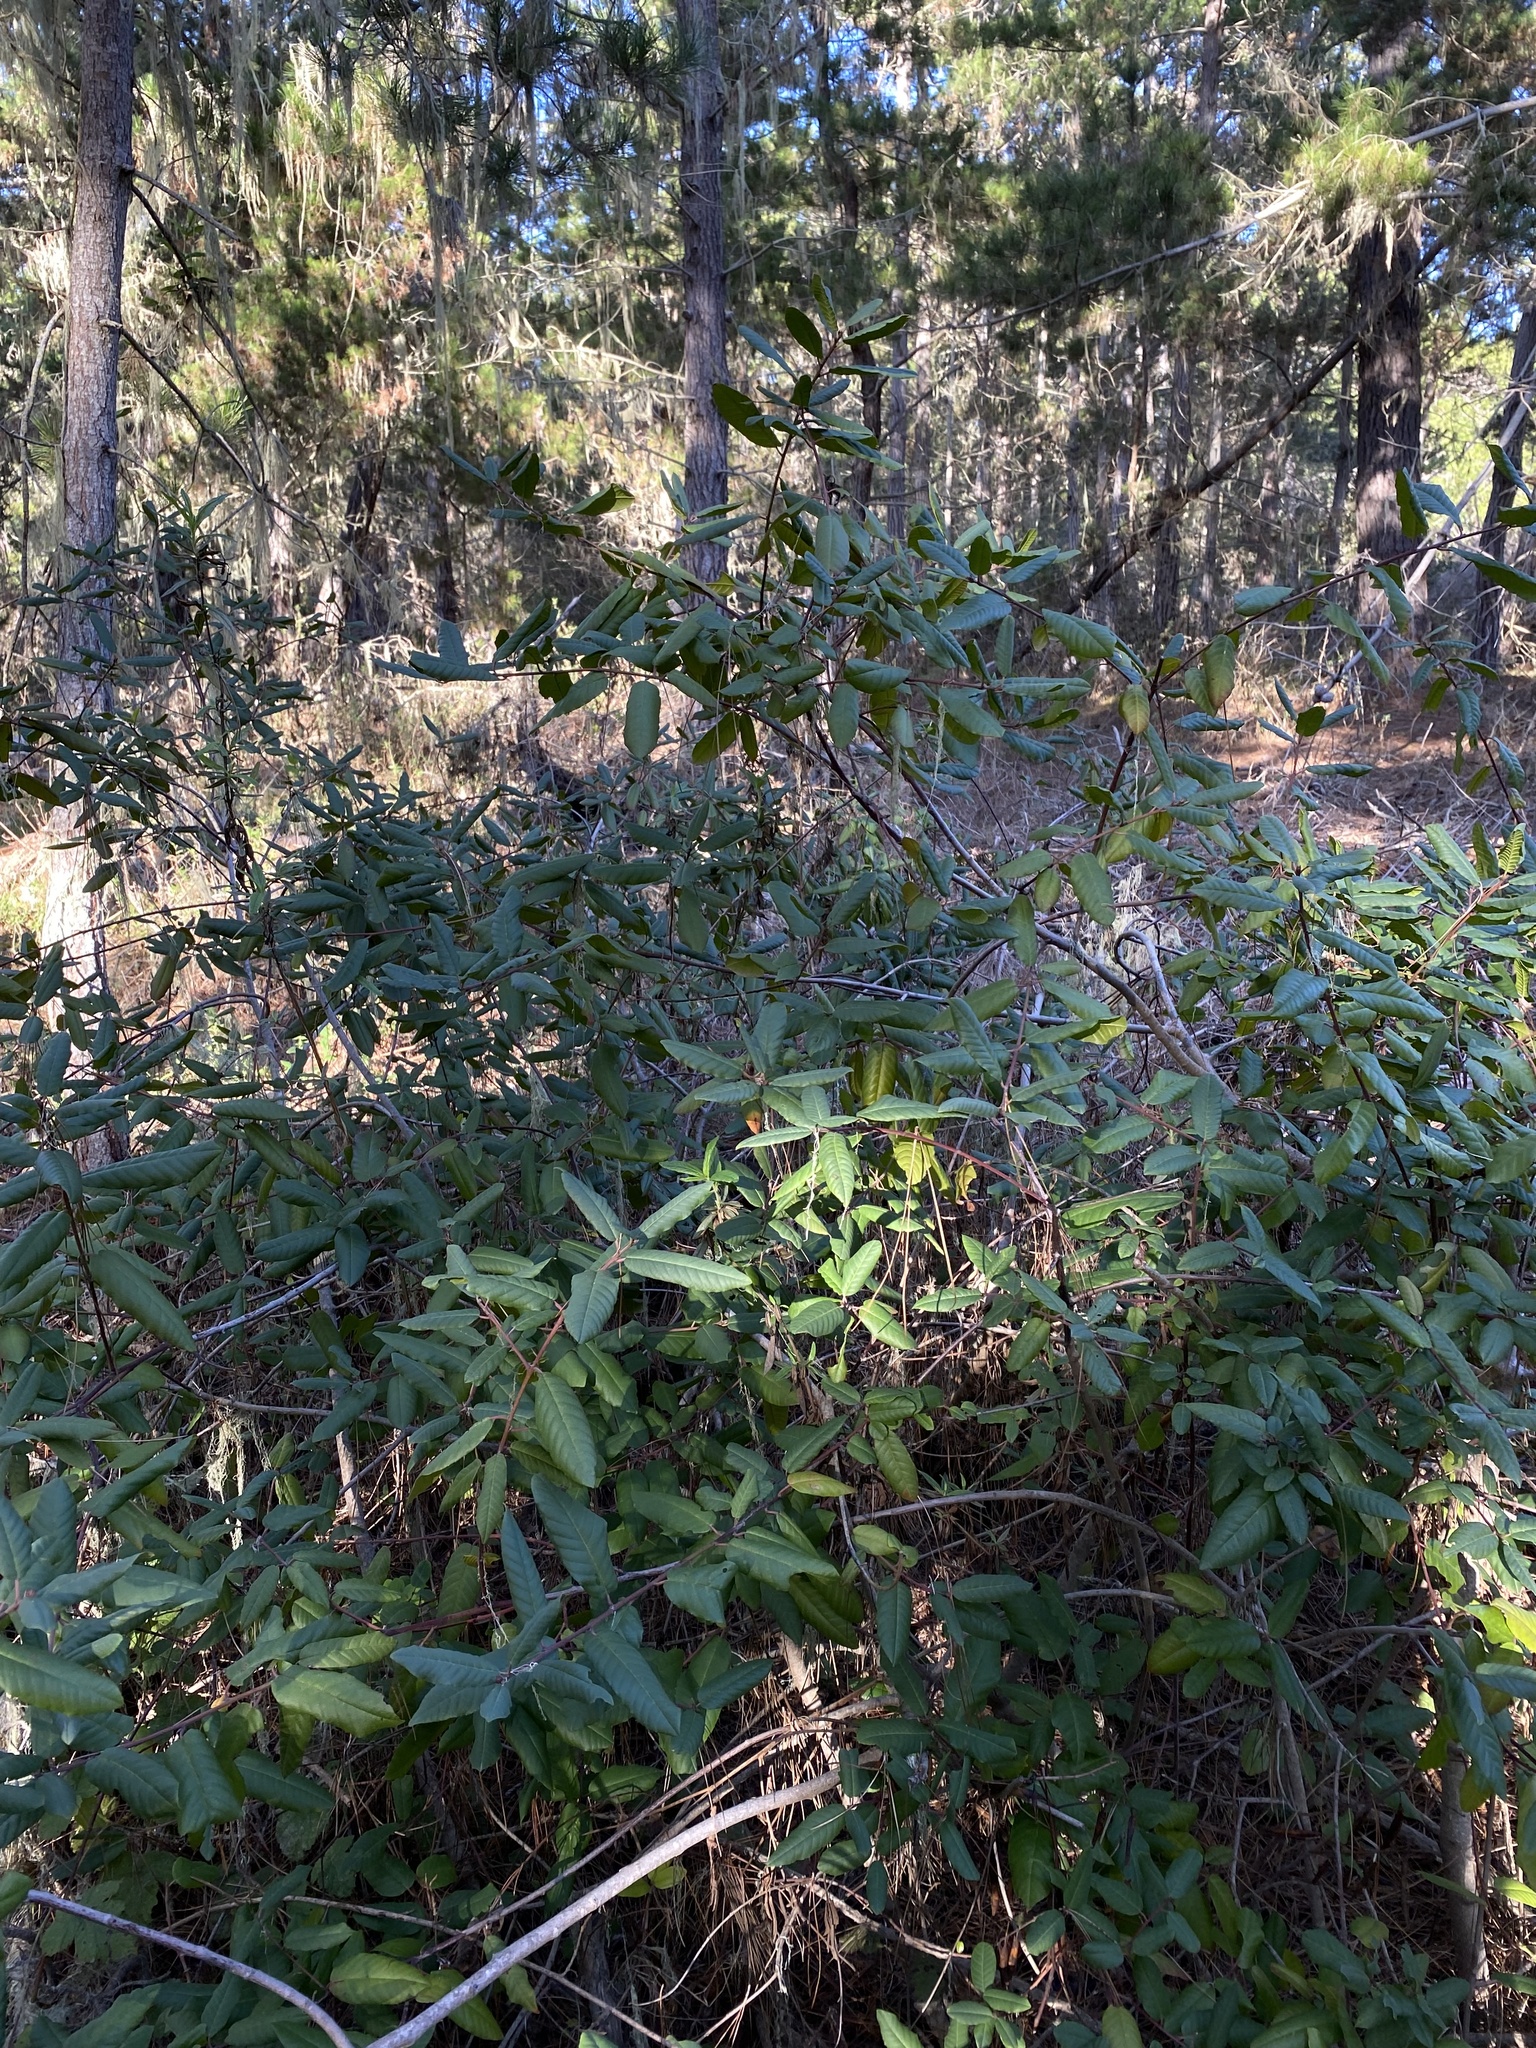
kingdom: Plantae
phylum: Tracheophyta
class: Magnoliopsida
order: Rosales
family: Rosaceae
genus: Heteromeles
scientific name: Heteromeles arbutifolia
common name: California-holly
